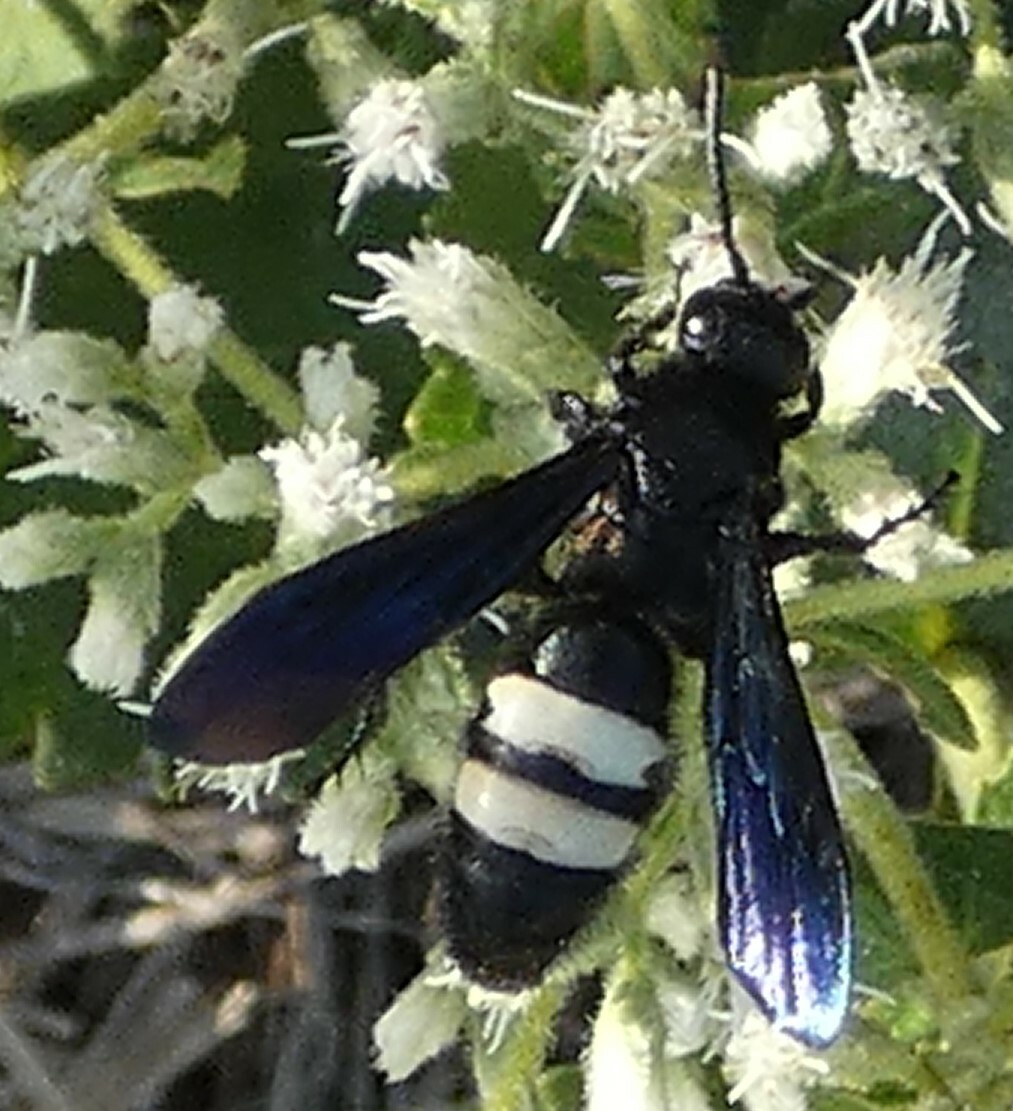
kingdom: Animalia
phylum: Arthropoda
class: Insecta
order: Hymenoptera
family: Scoliidae
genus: Scolia
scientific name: Scolia bicincta
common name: Double-banded scoliid wasp
